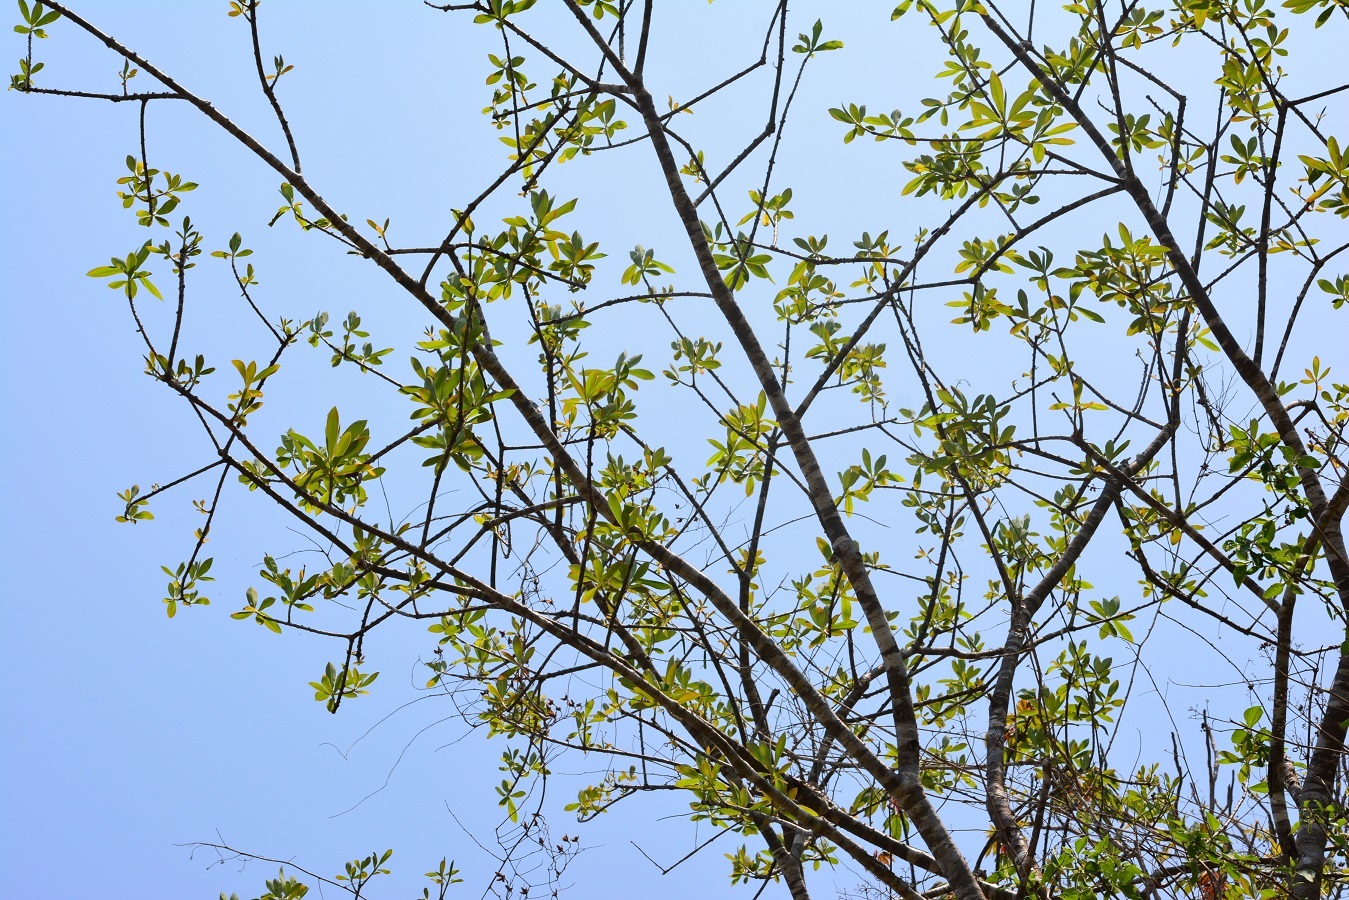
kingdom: Plantae
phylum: Tracheophyta
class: Magnoliopsida
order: Malpighiales
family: Euphorbiaceae
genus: Euphorbia
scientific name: Euphorbia lundelliana
